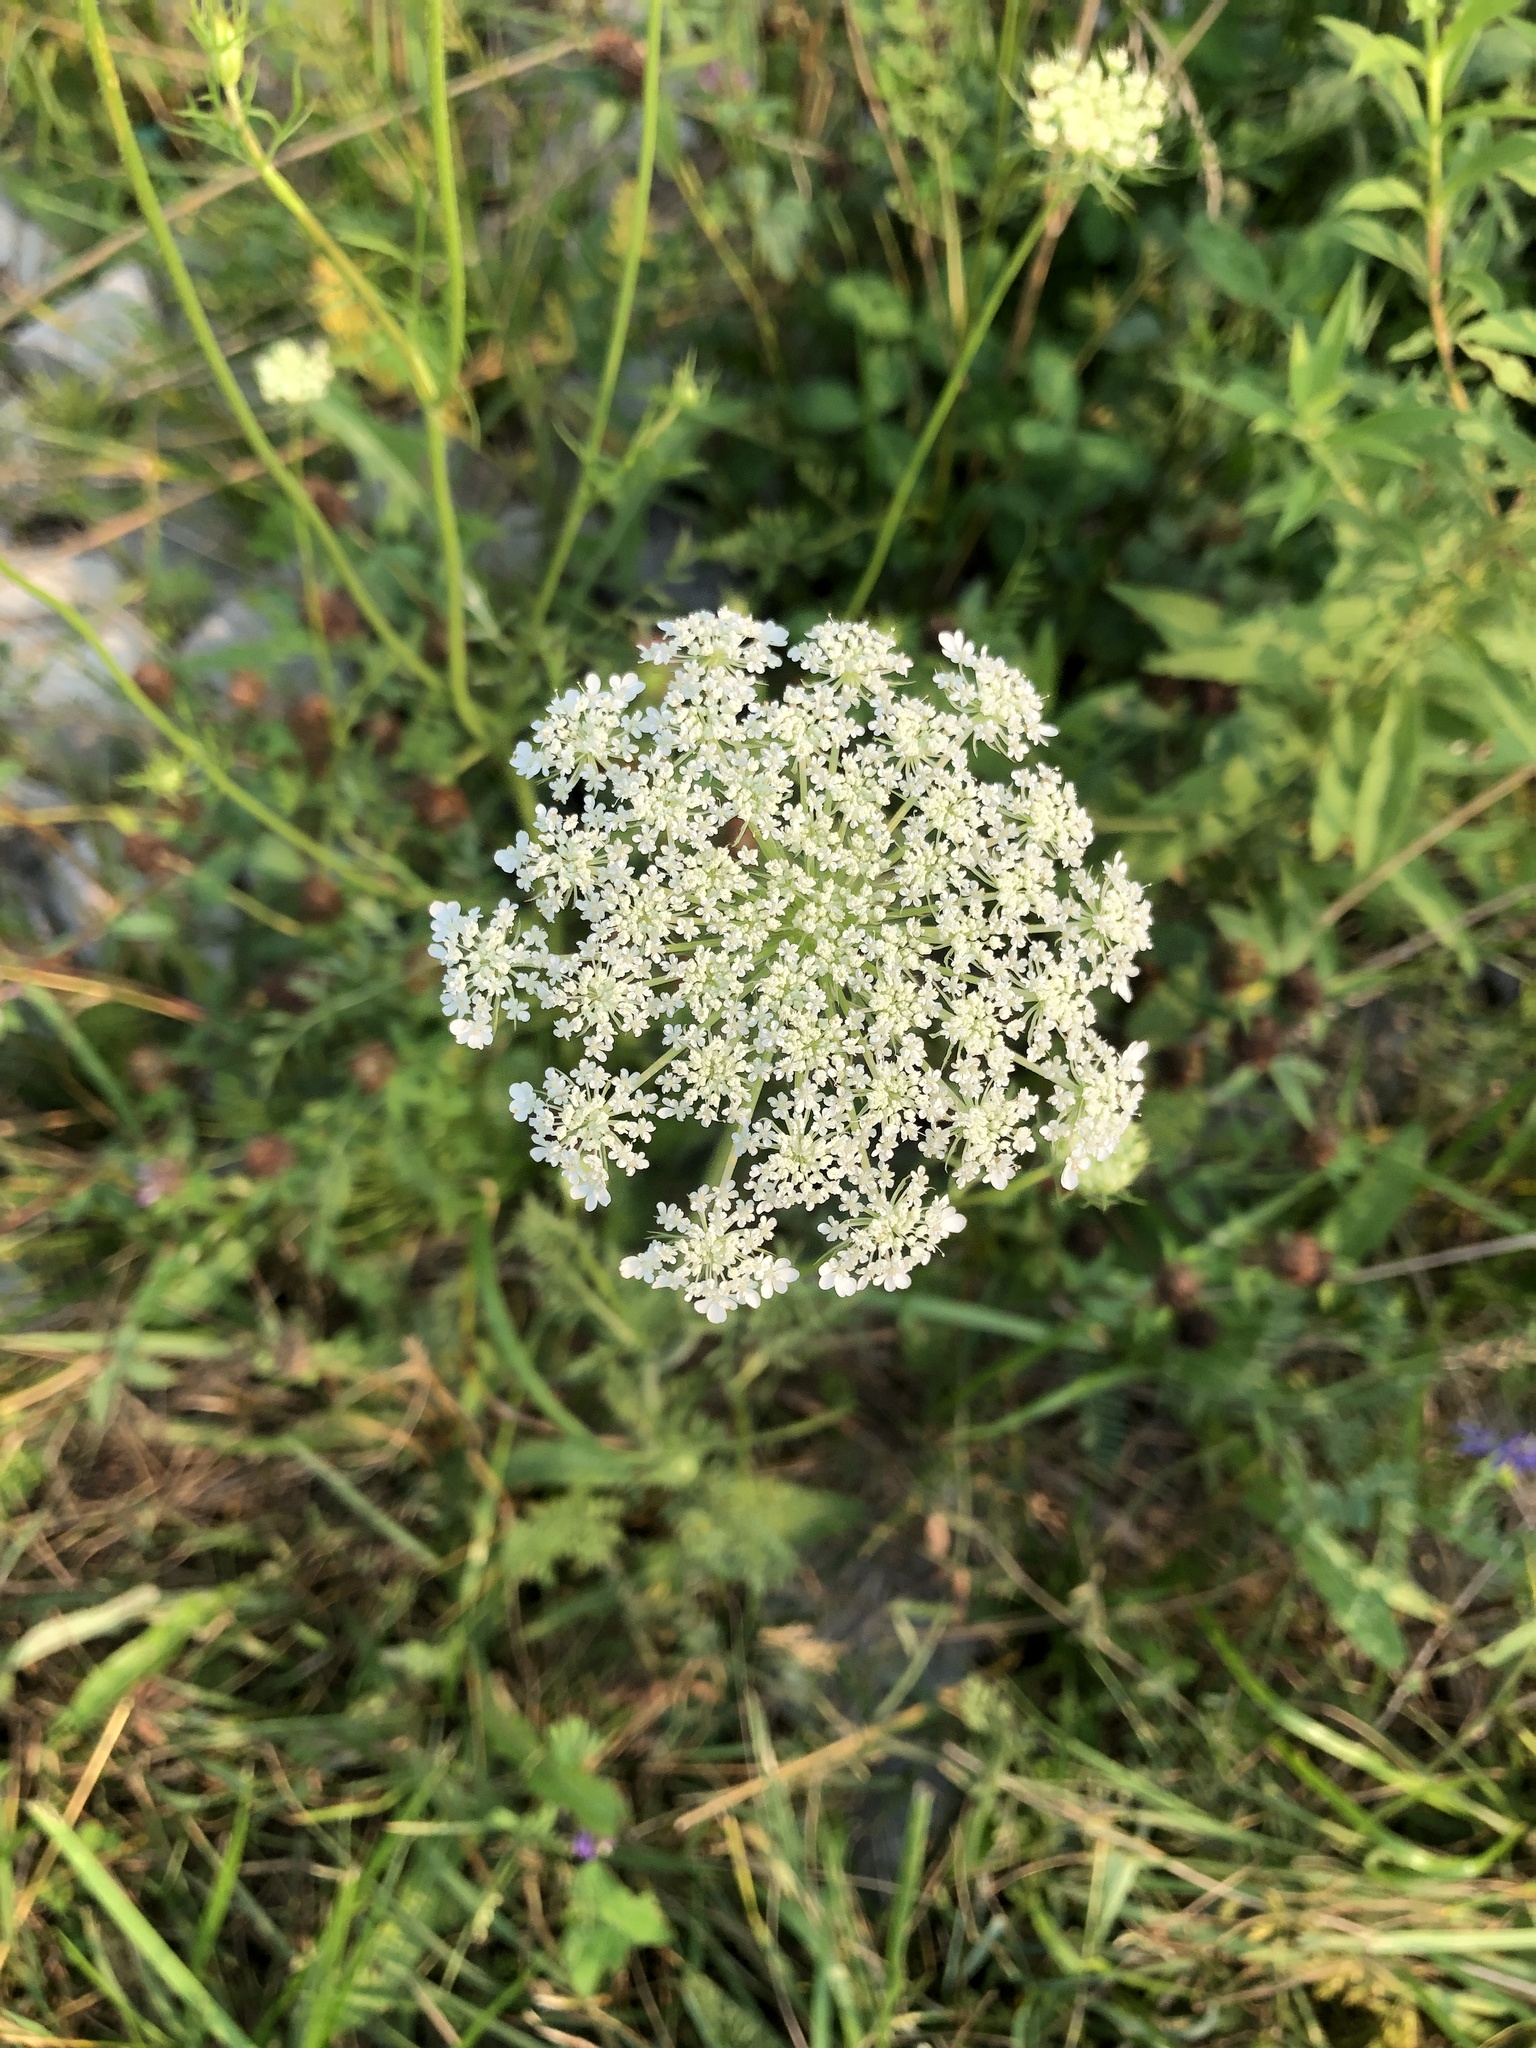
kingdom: Plantae
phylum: Tracheophyta
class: Magnoliopsida
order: Apiales
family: Apiaceae
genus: Daucus
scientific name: Daucus carota
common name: Wild carrot
